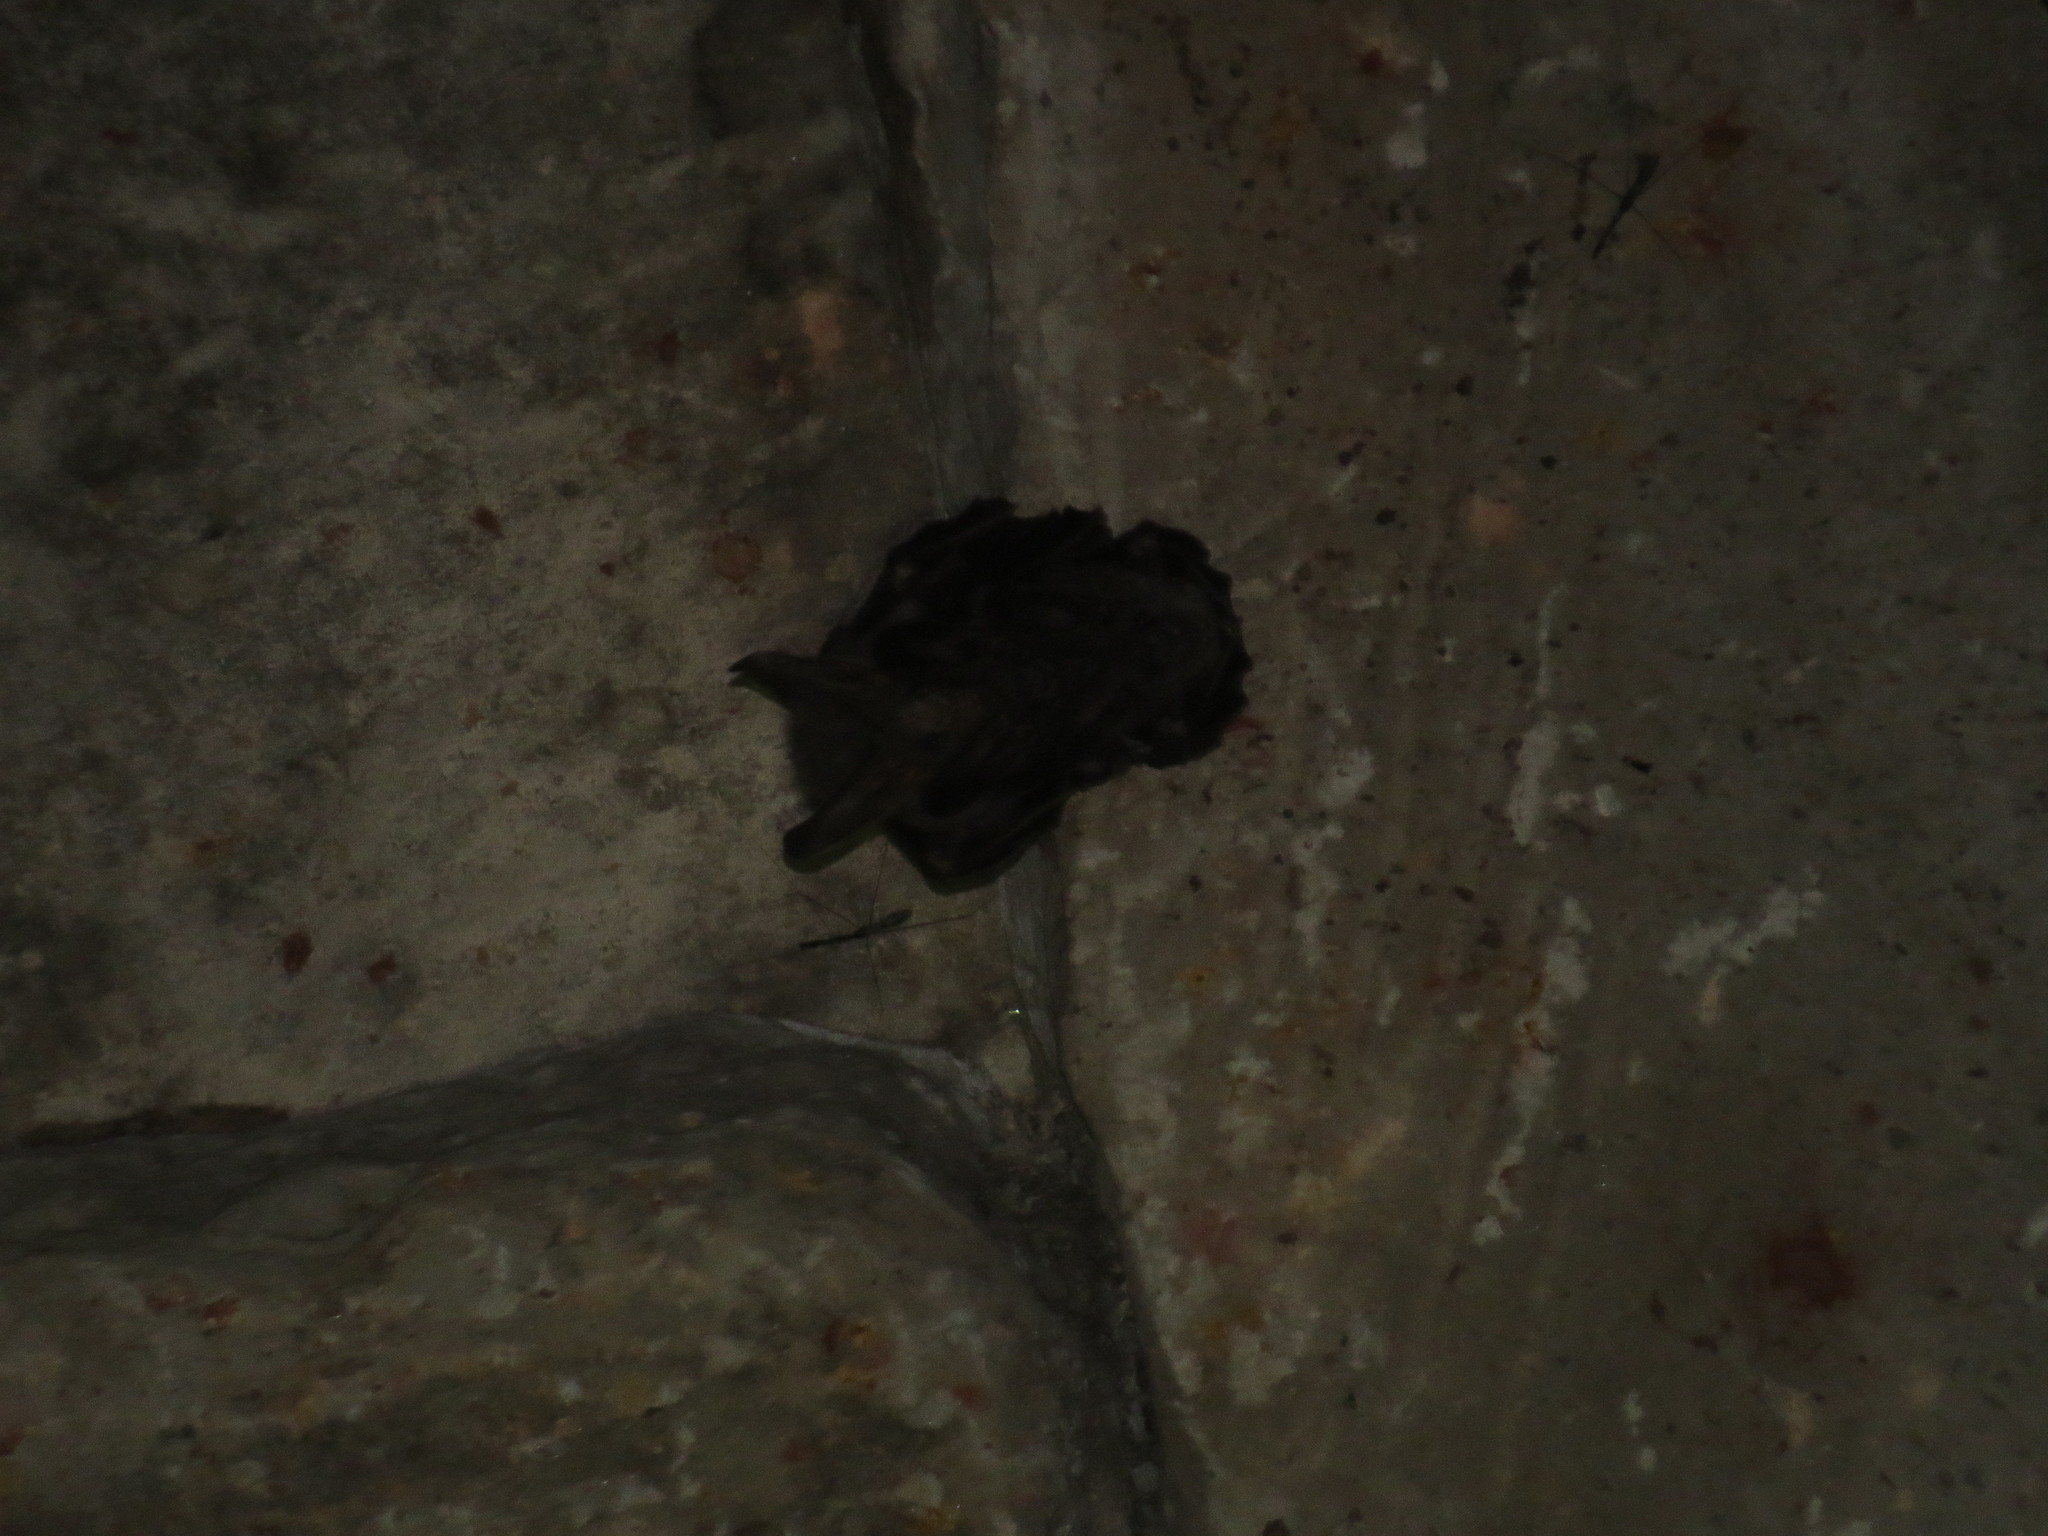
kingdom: Animalia
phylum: Chordata
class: Mammalia
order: Chiroptera
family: Megadermatidae
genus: Megaderma
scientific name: Megaderma spasma
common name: Lesser false vampire bat
